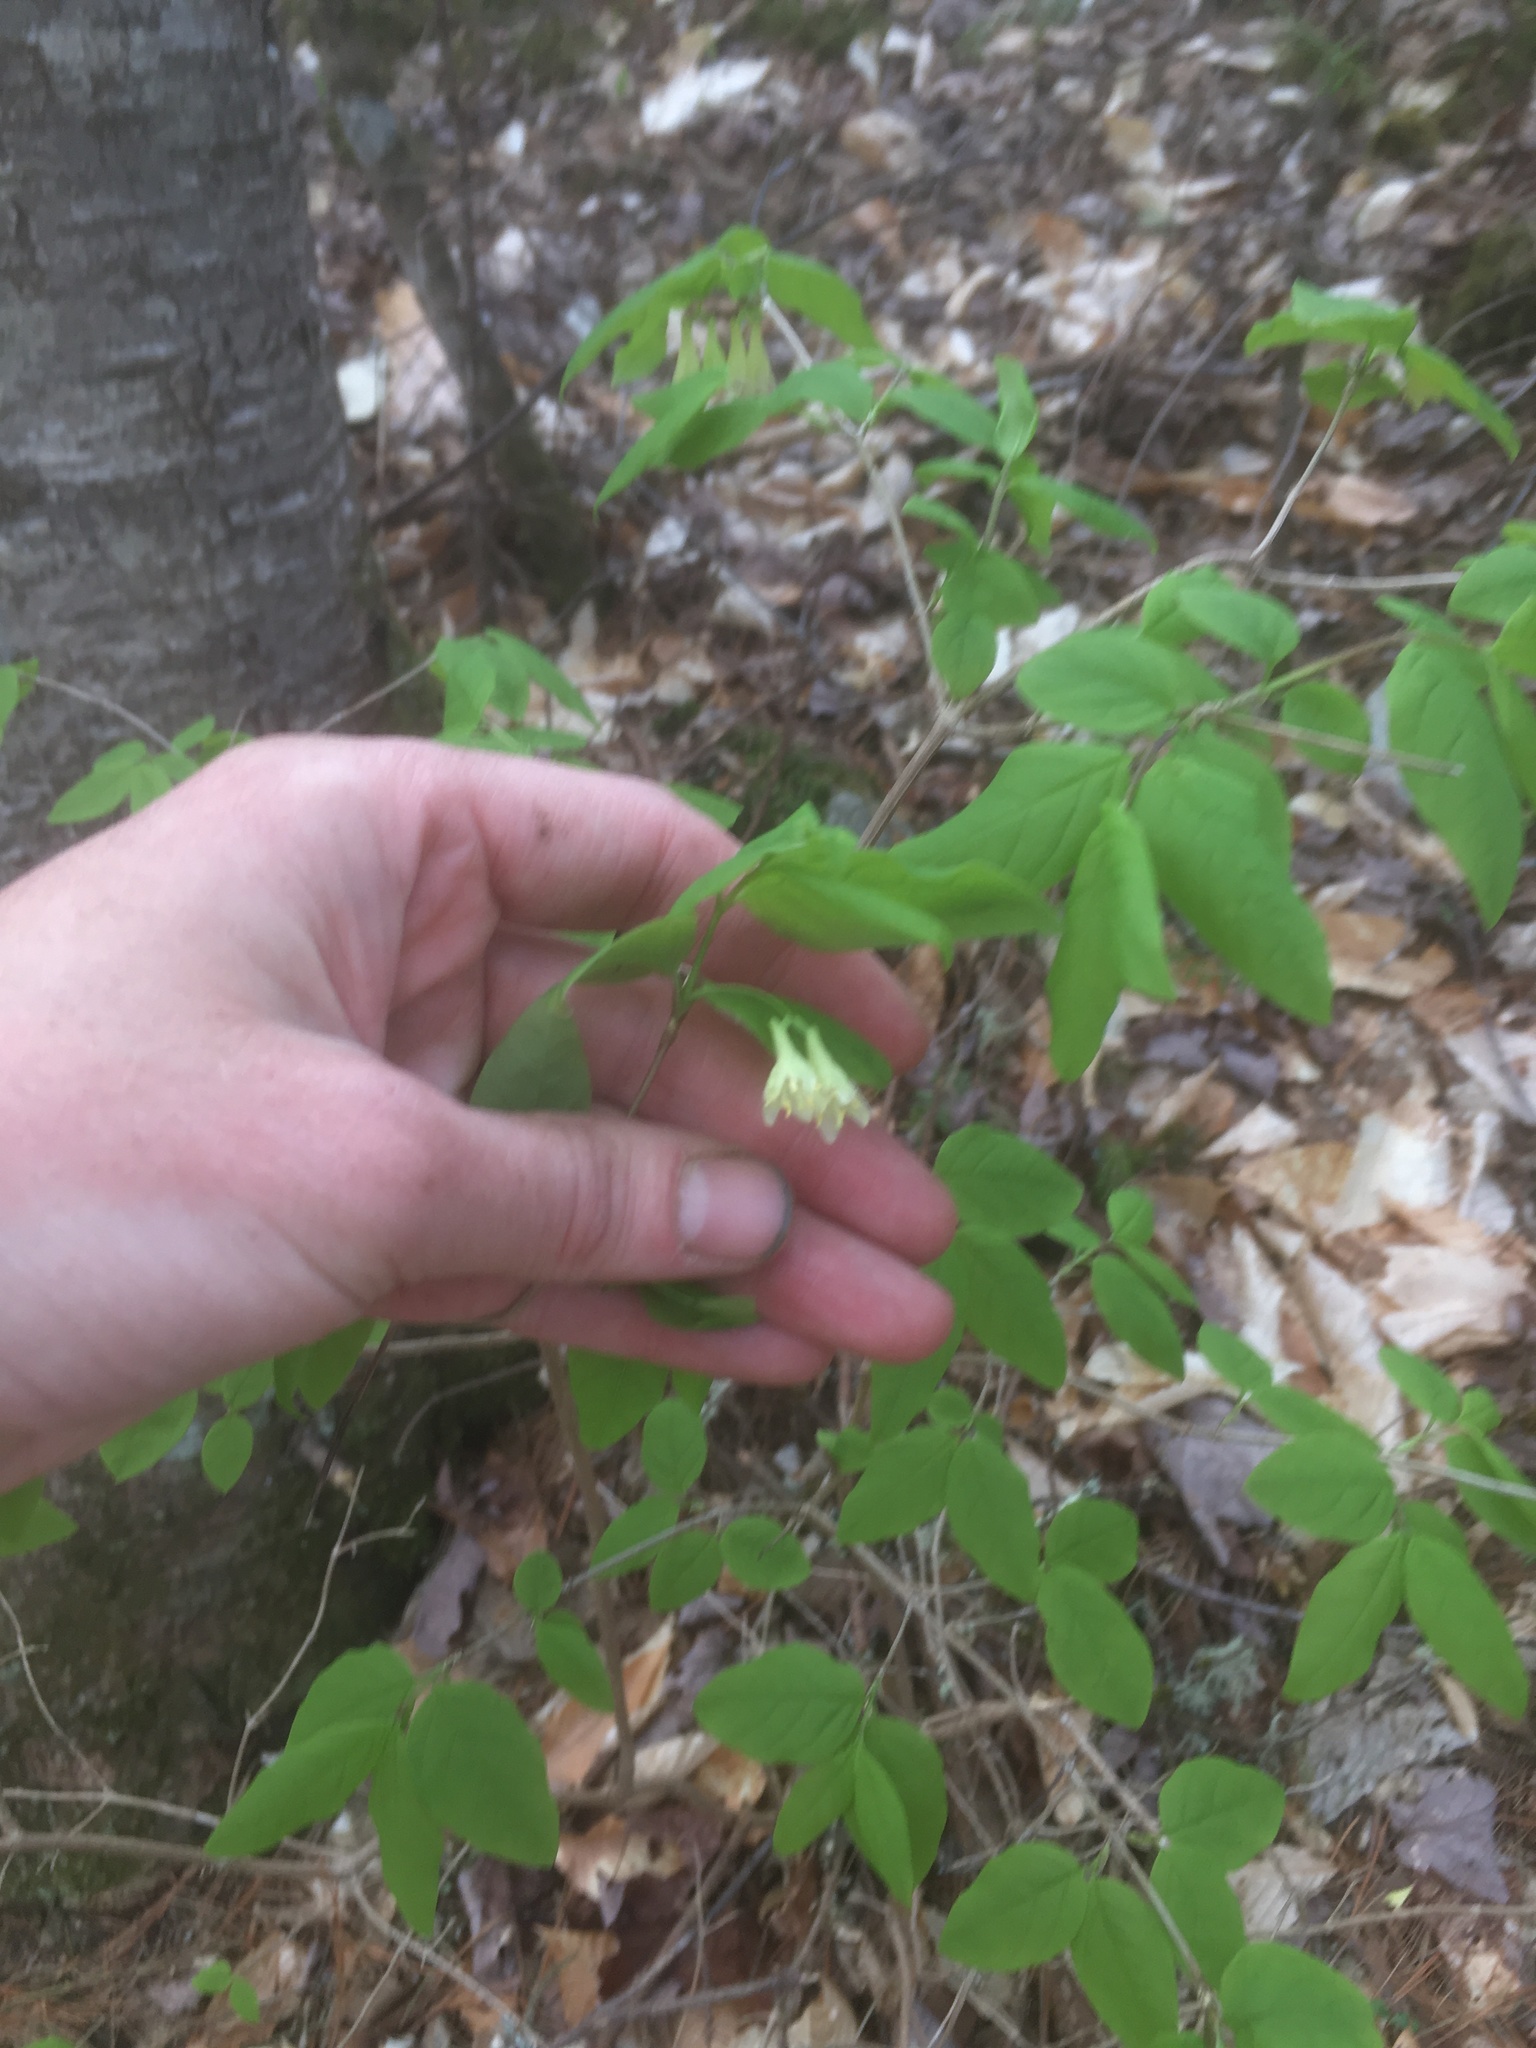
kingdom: Plantae
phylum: Tracheophyta
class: Magnoliopsida
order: Dipsacales
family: Caprifoliaceae
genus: Lonicera
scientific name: Lonicera canadensis
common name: American fly-honeysuckle
